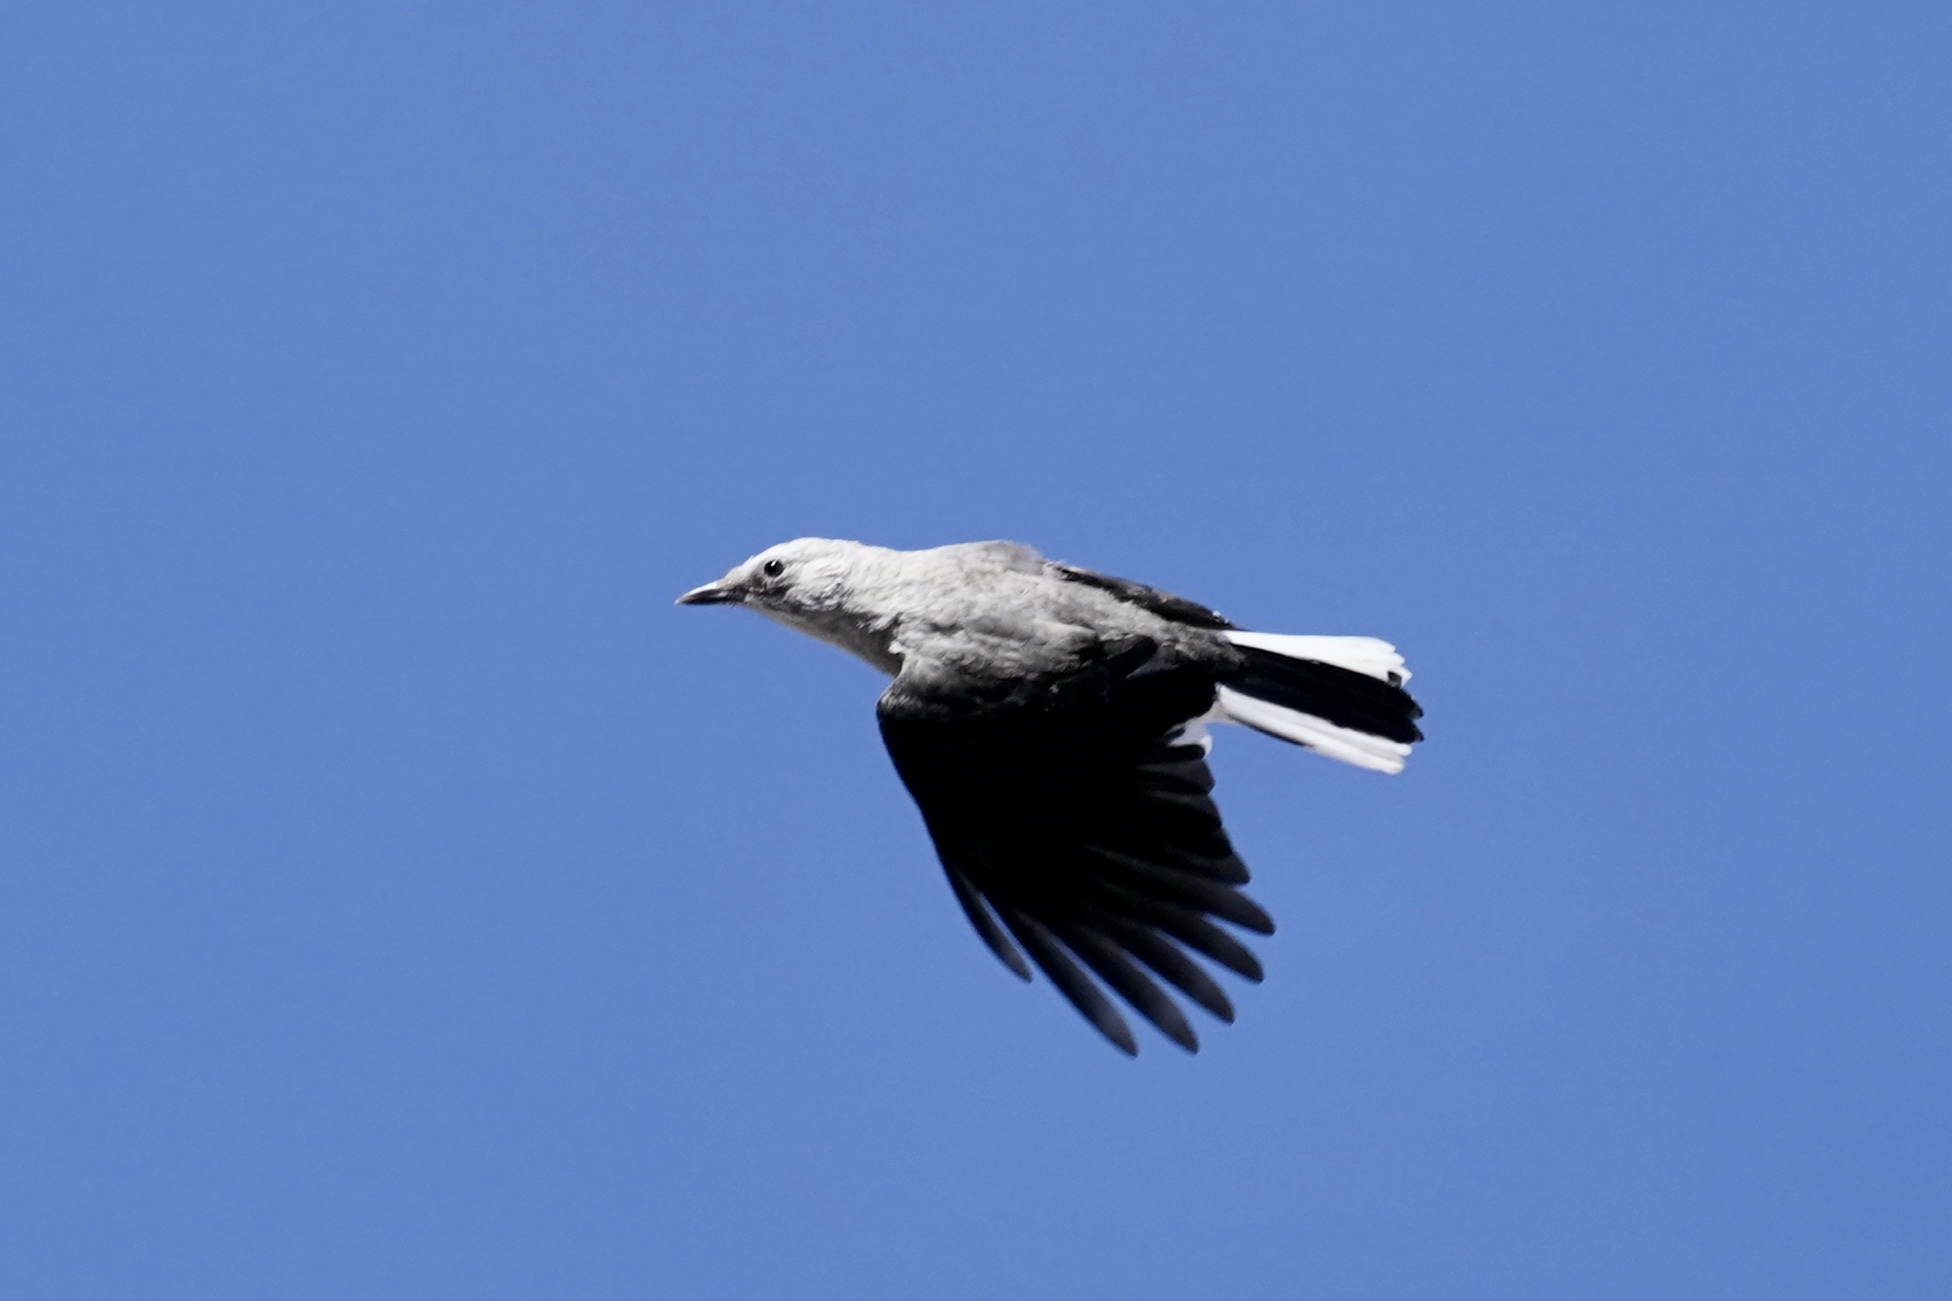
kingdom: Animalia
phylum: Chordata
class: Aves
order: Passeriformes
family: Corvidae
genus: Nucifraga
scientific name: Nucifraga columbiana
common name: Clark's nutcracker
